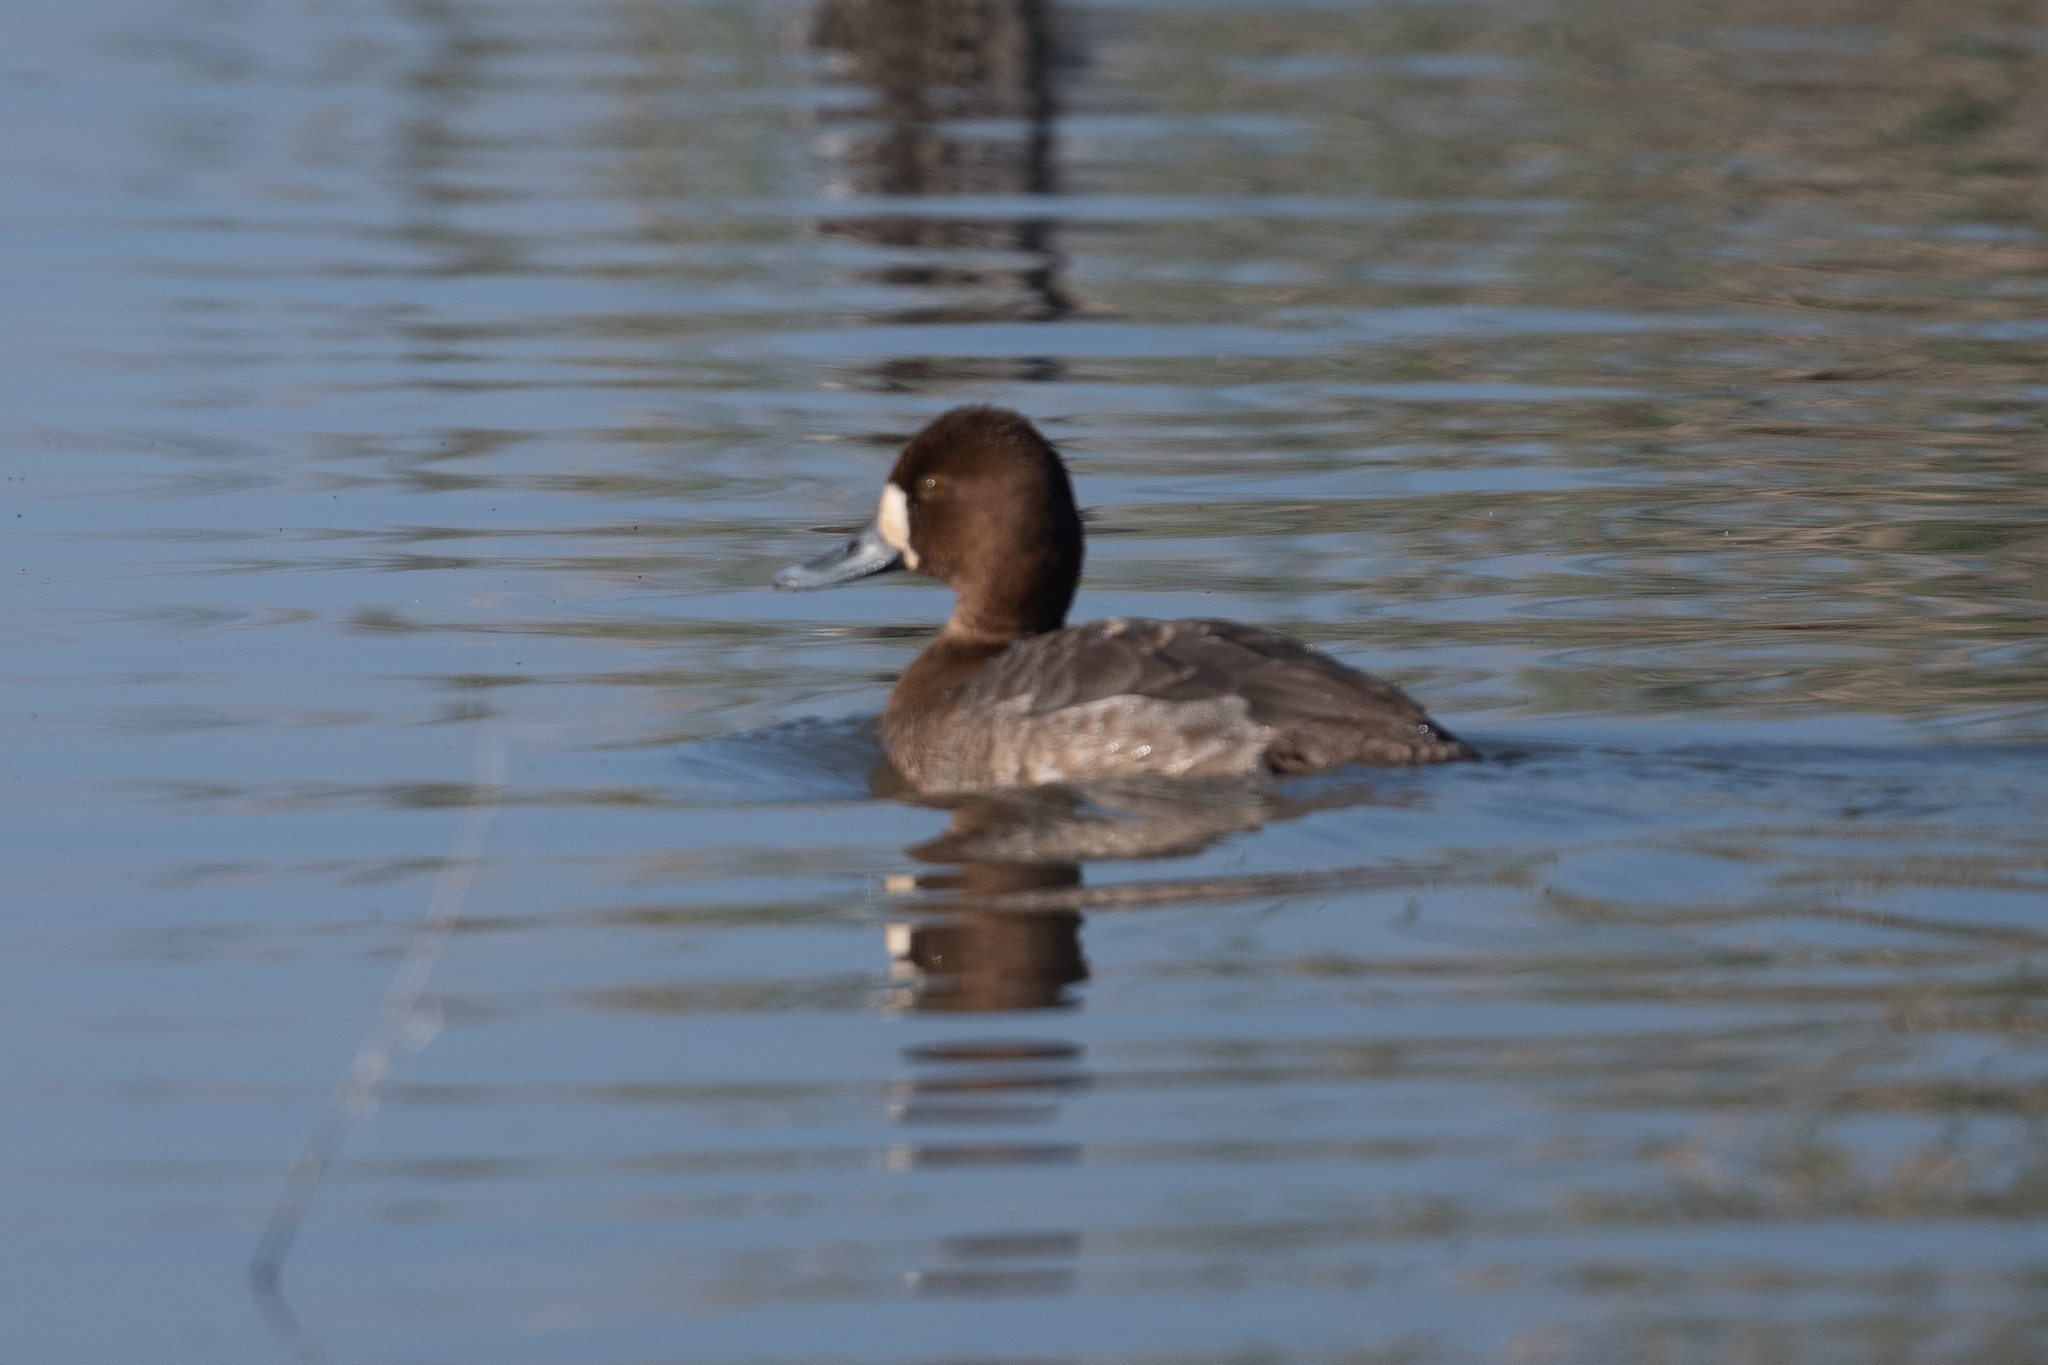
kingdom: Animalia
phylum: Chordata
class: Aves
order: Anseriformes
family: Anatidae
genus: Aythya
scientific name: Aythya affinis
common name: Lesser scaup
